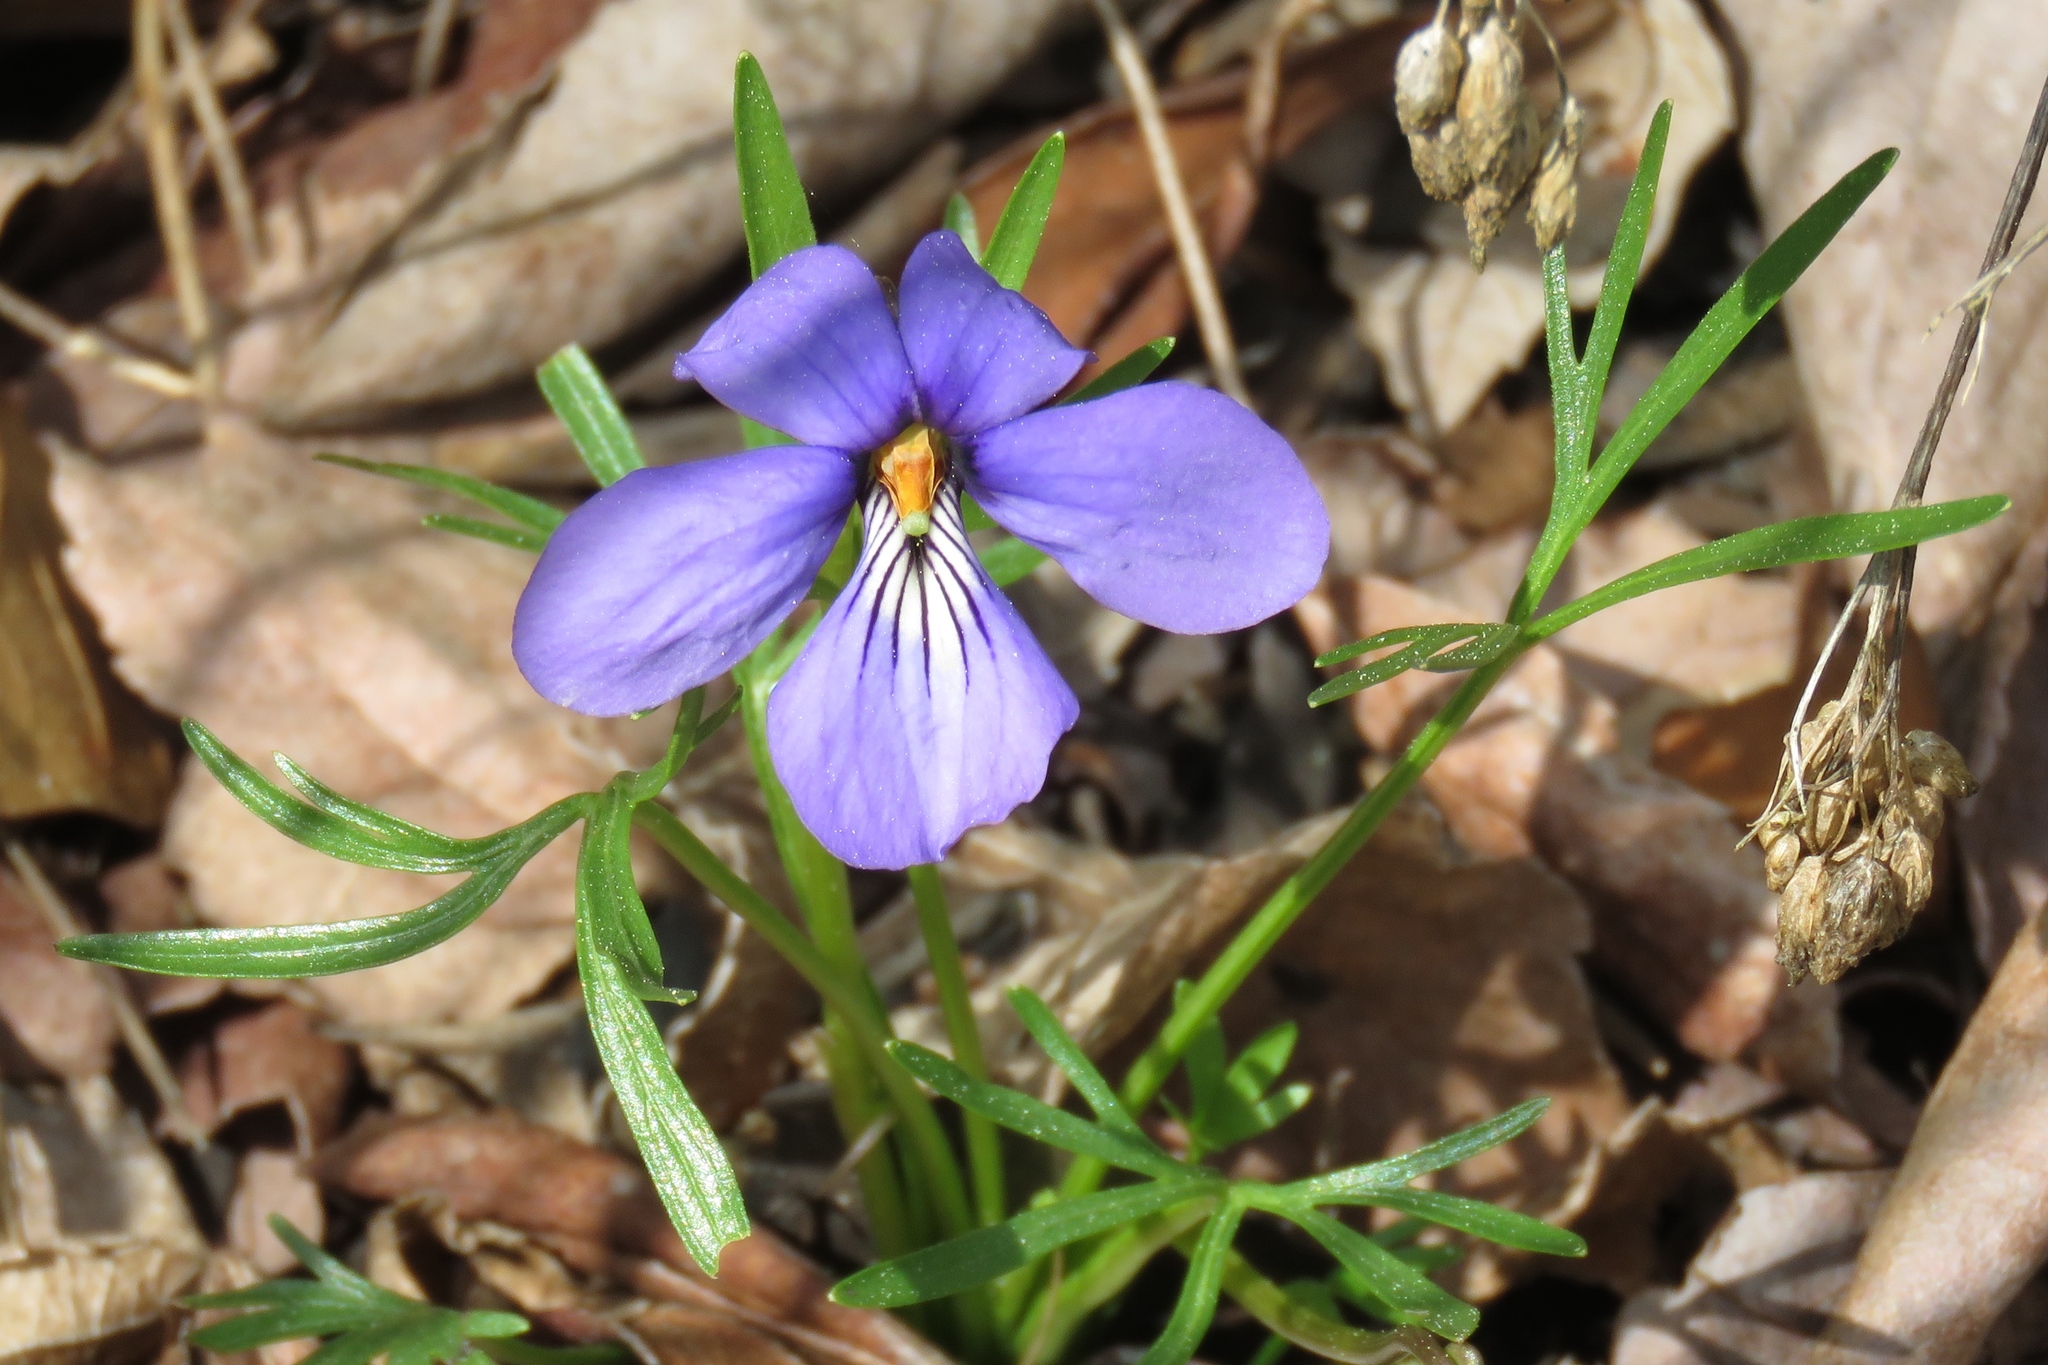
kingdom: Plantae
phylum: Tracheophyta
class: Magnoliopsida
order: Malpighiales
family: Violaceae
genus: Viola
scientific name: Viola pedata
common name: Pansy violet
